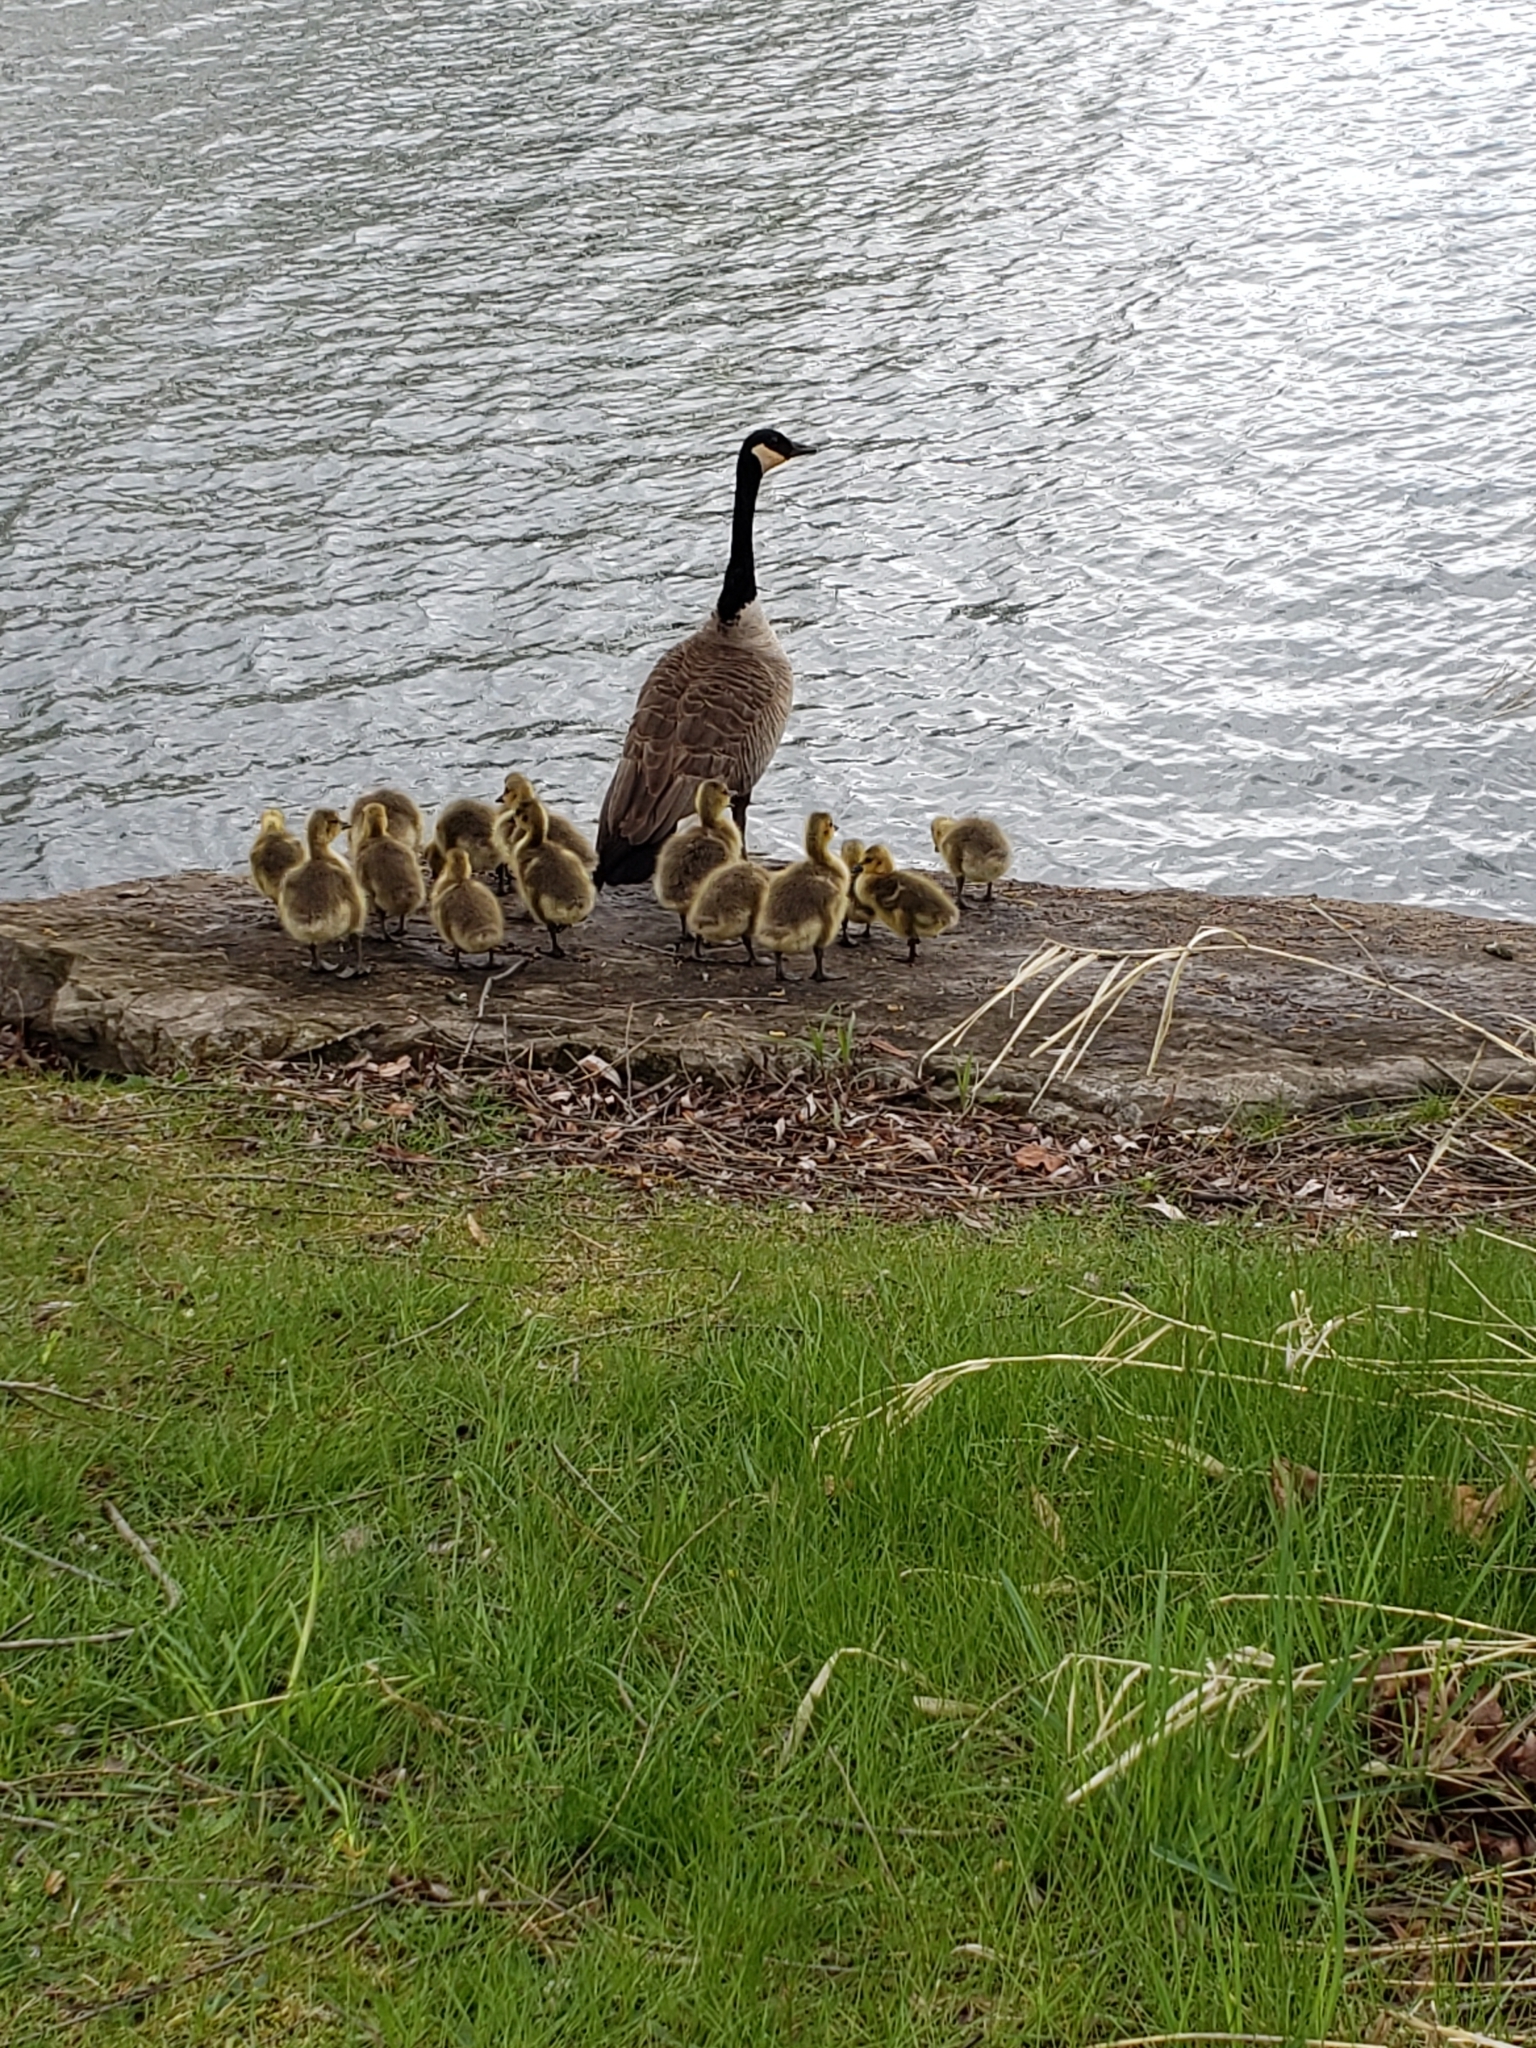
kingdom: Animalia
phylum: Chordata
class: Aves
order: Anseriformes
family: Anatidae
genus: Branta
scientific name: Branta canadensis
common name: Canada goose
